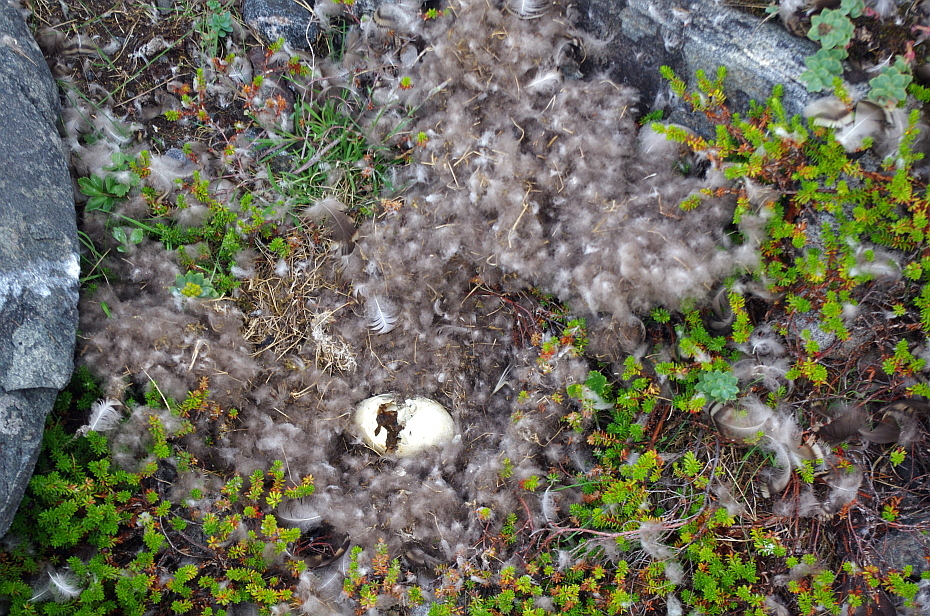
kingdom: Animalia
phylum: Chordata
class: Aves
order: Anseriformes
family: Anatidae
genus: Somateria
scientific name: Somateria mollissima
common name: Common eider
